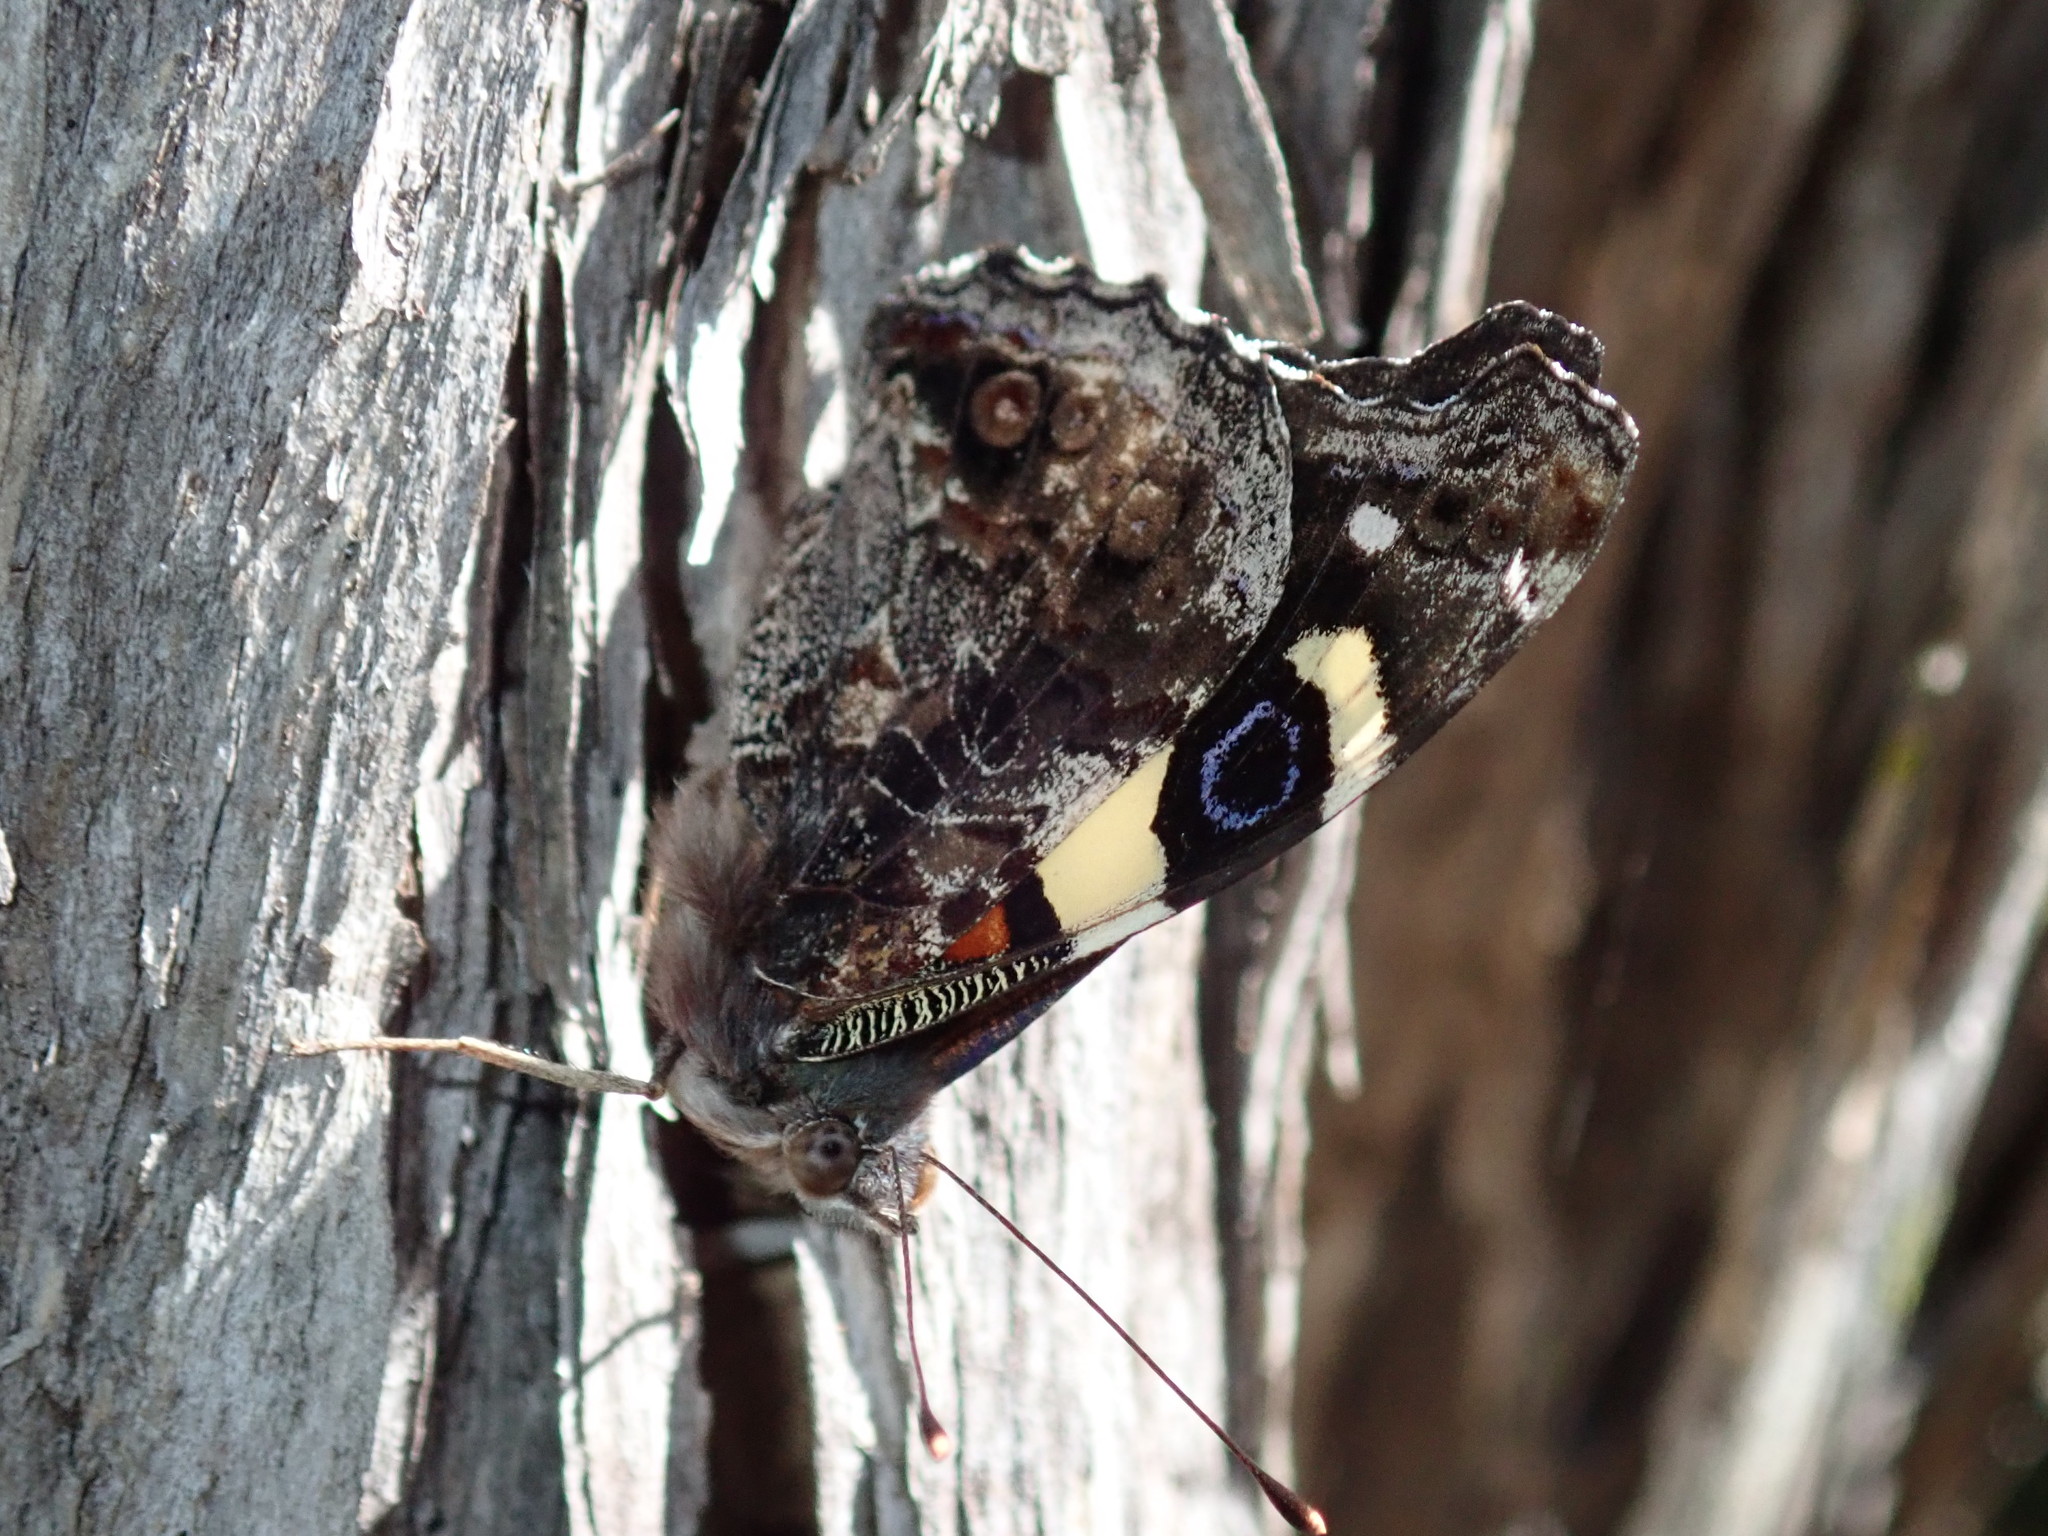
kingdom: Animalia
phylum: Arthropoda
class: Insecta
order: Lepidoptera
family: Nymphalidae
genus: Vanessa
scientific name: Vanessa itea
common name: Yellow admiral
